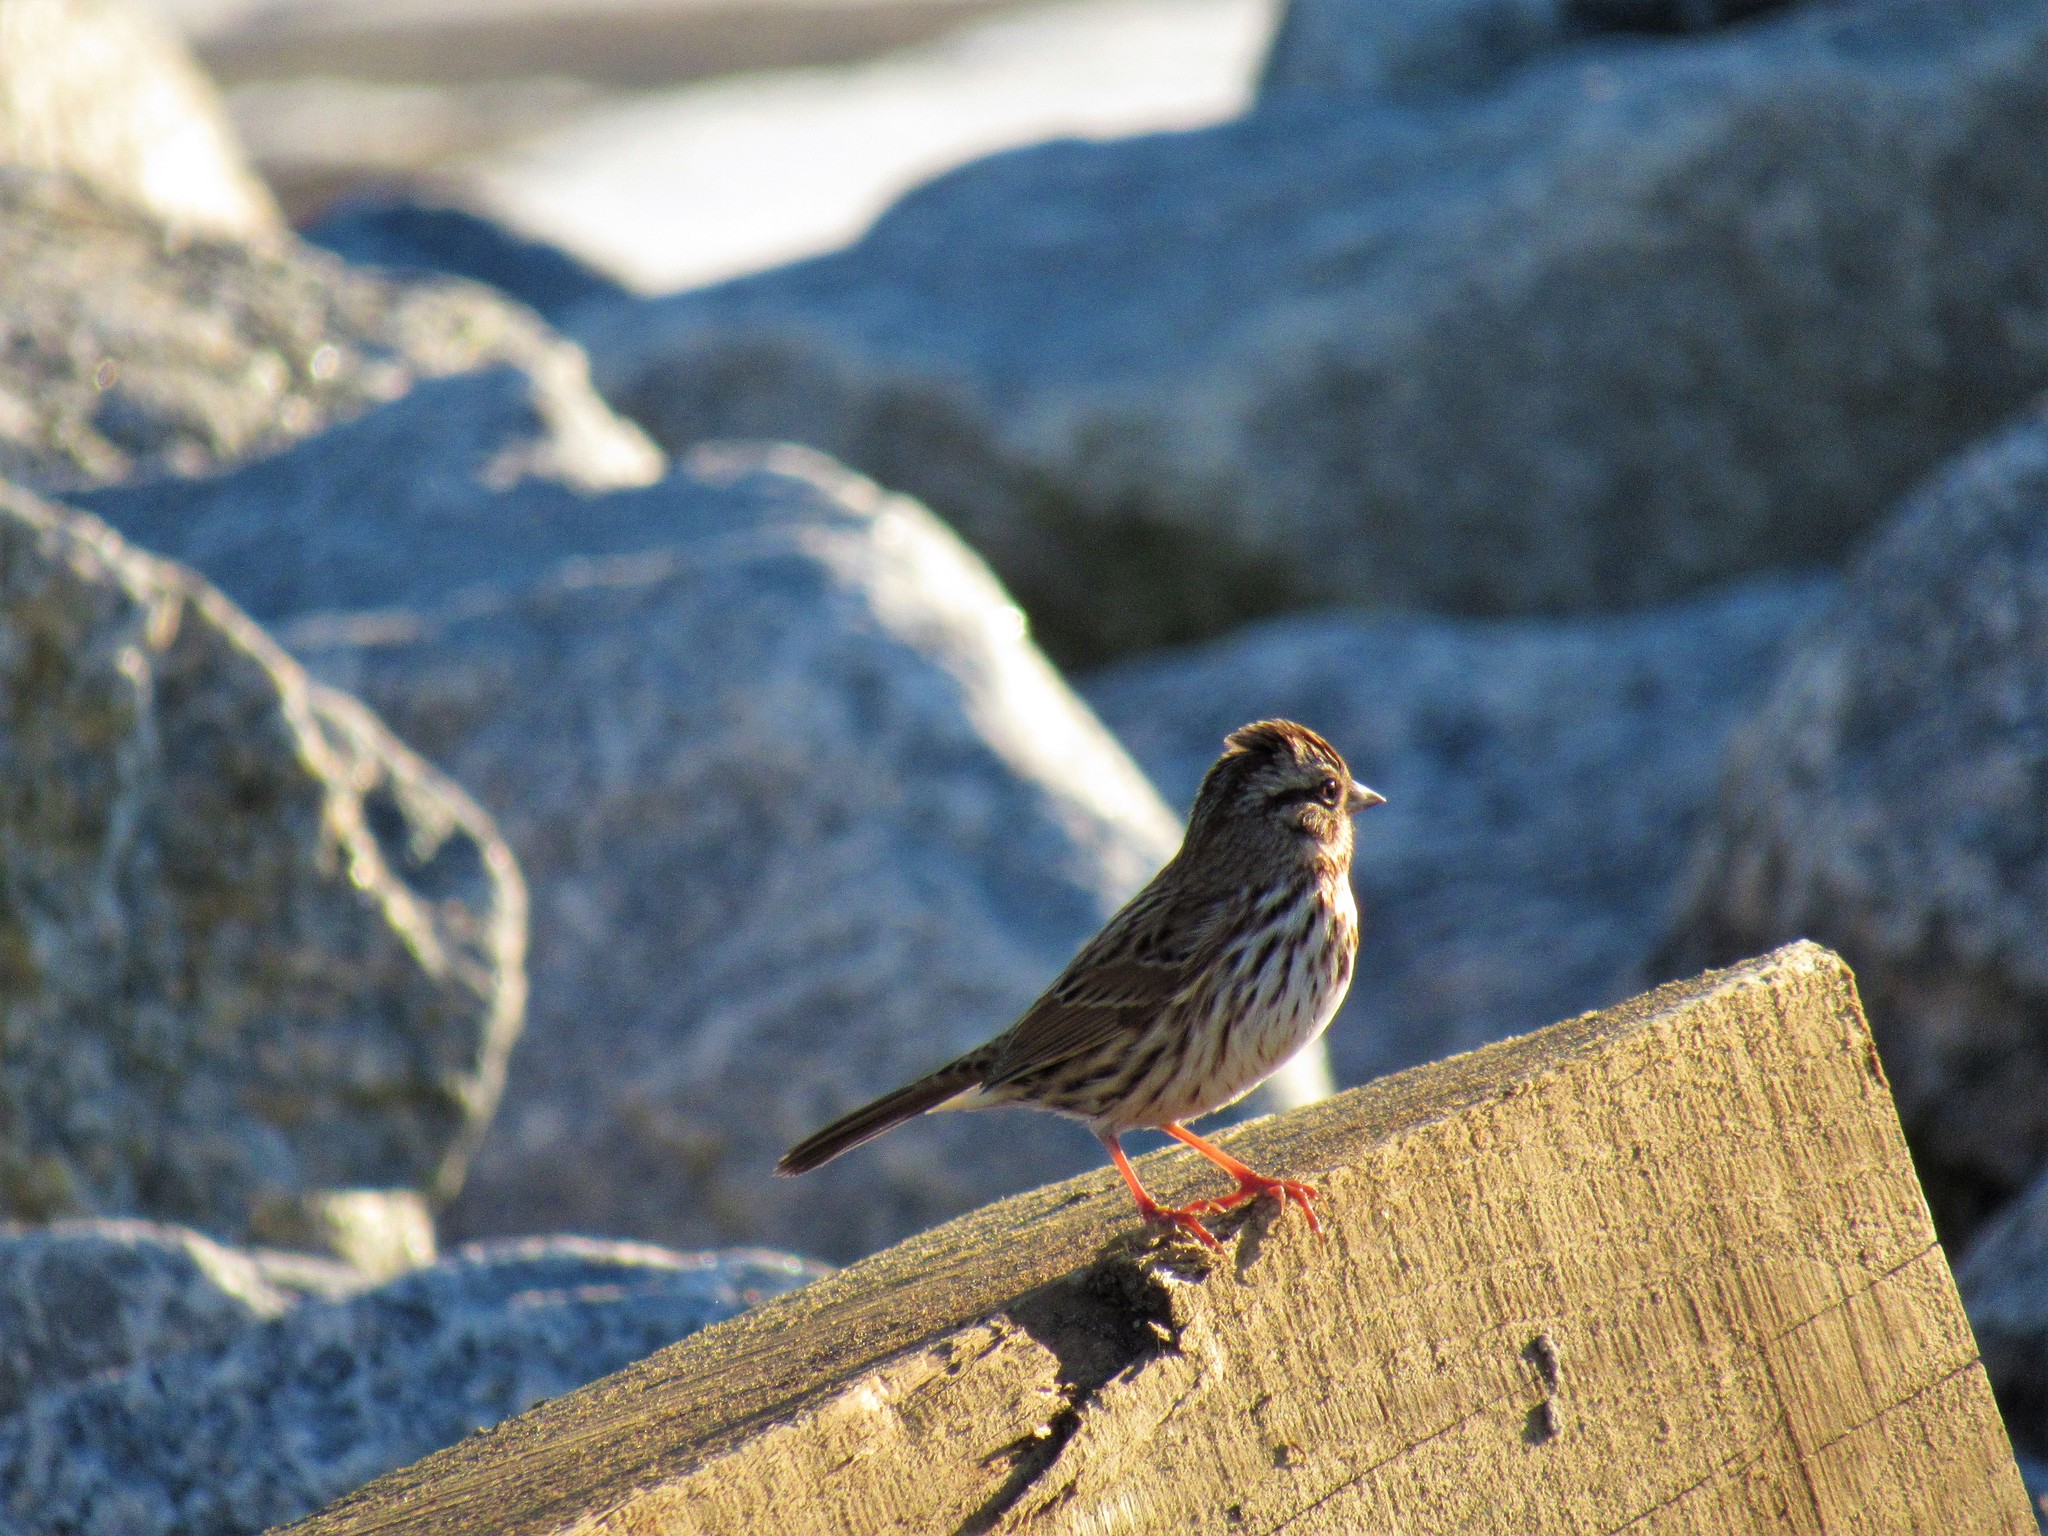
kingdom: Animalia
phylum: Chordata
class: Aves
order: Passeriformes
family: Passerellidae
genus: Melospiza
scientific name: Melospiza melodia
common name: Song sparrow
